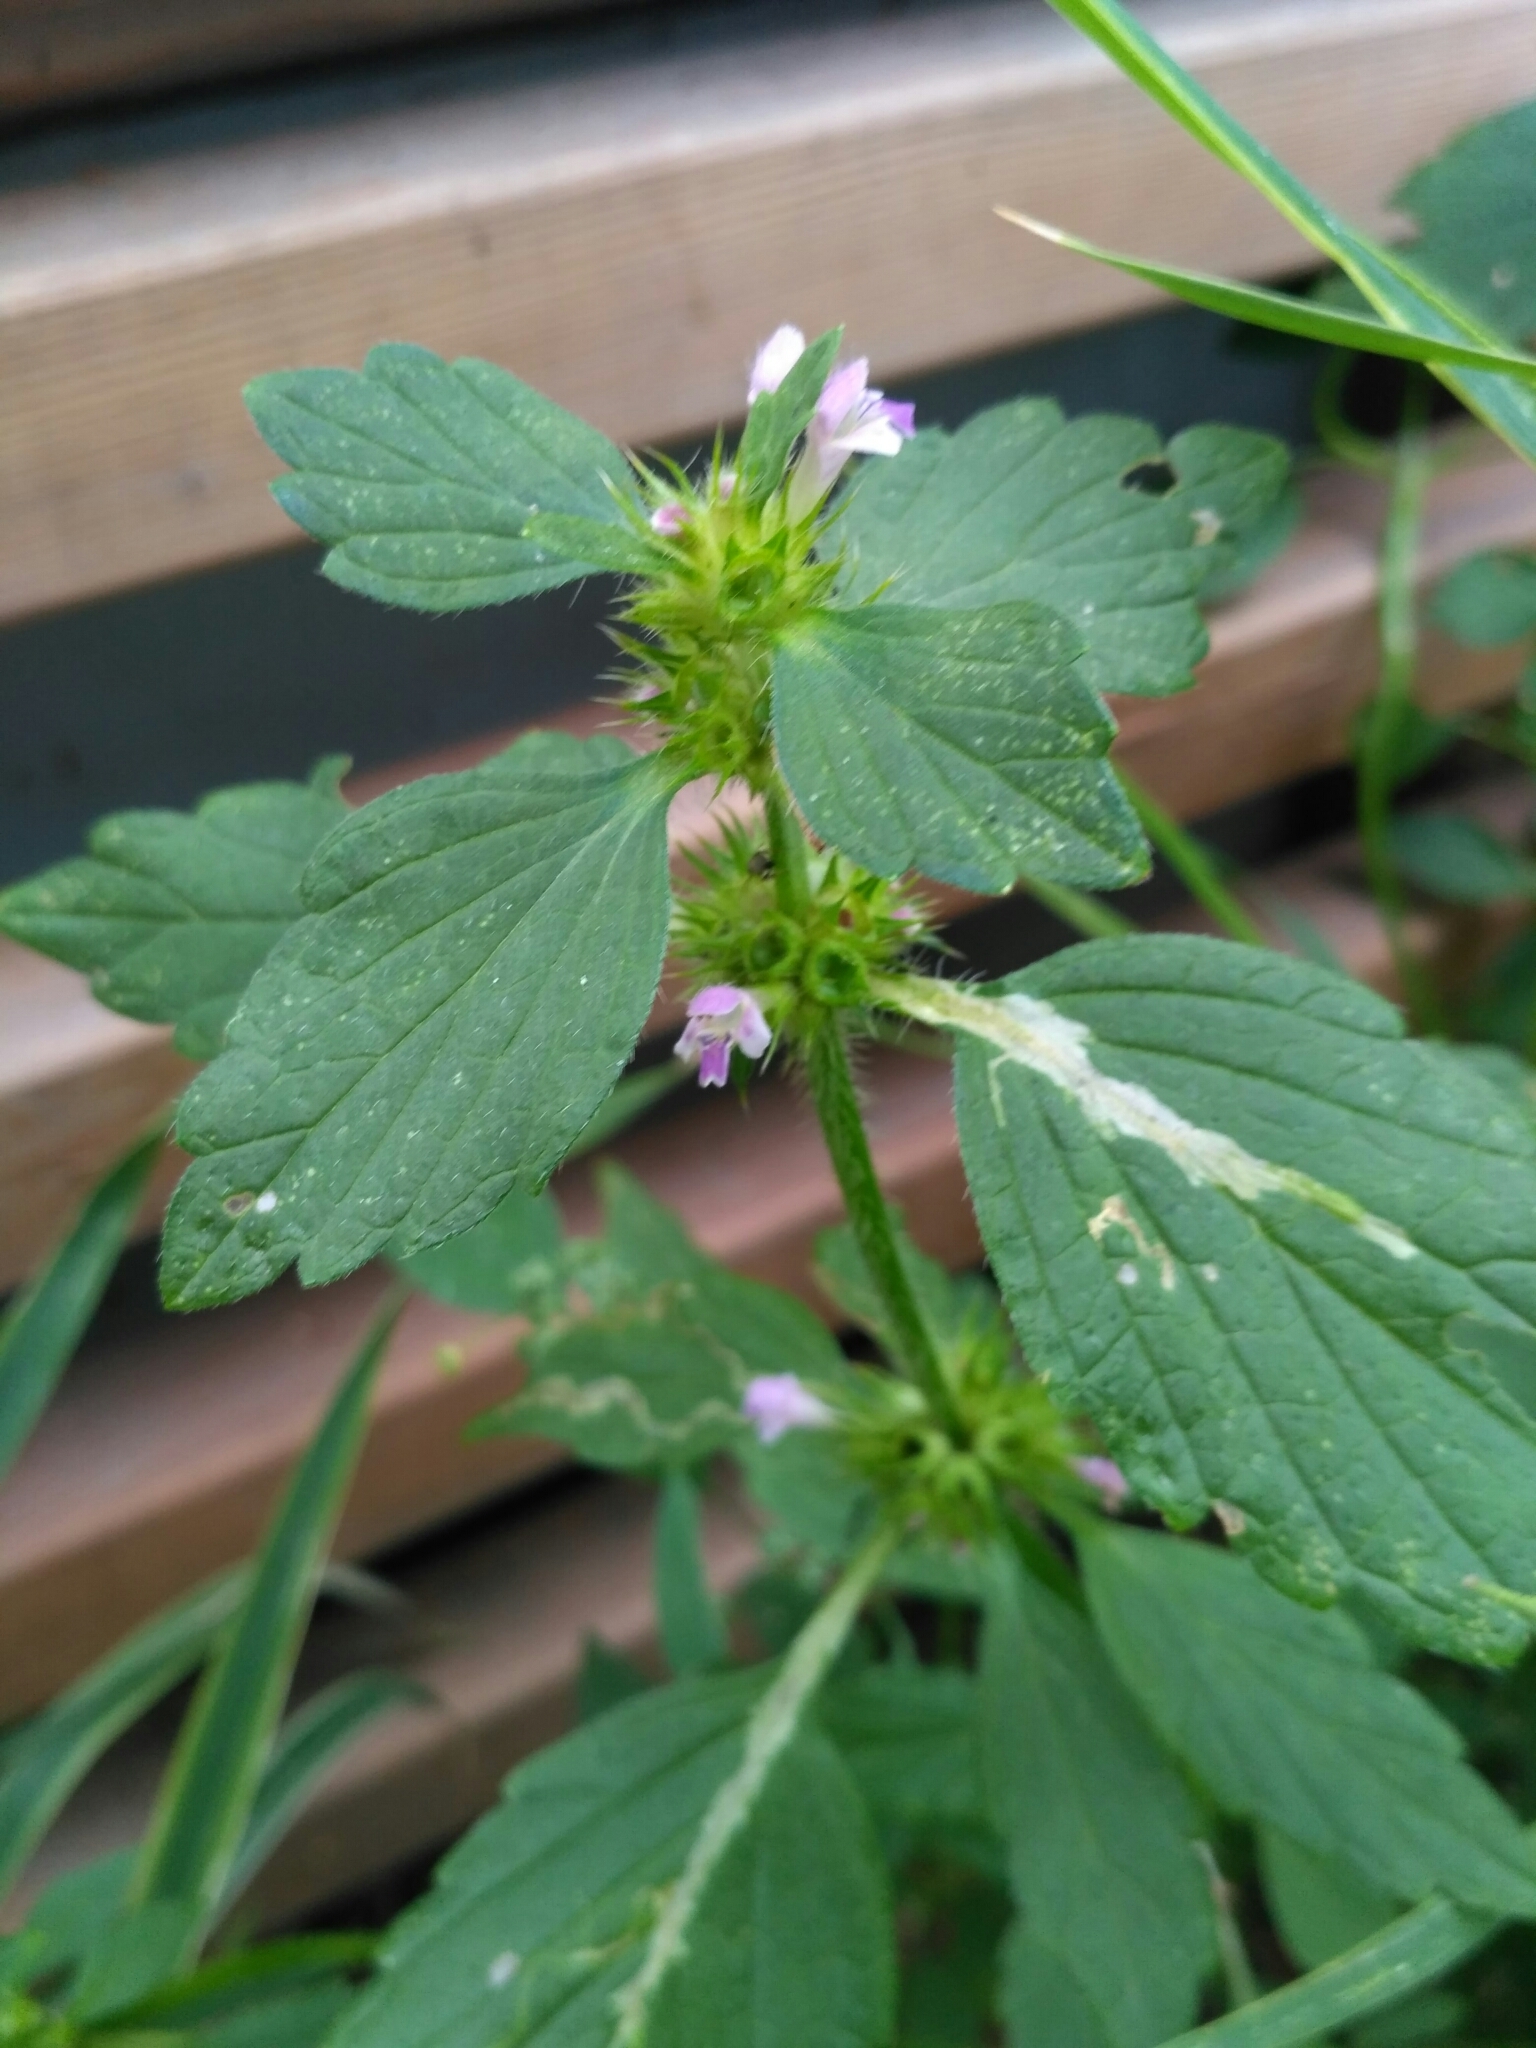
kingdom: Plantae
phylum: Tracheophyta
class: Magnoliopsida
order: Lamiales
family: Lamiaceae
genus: Galeopsis
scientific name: Galeopsis bifida
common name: Bifid hemp-nettle
